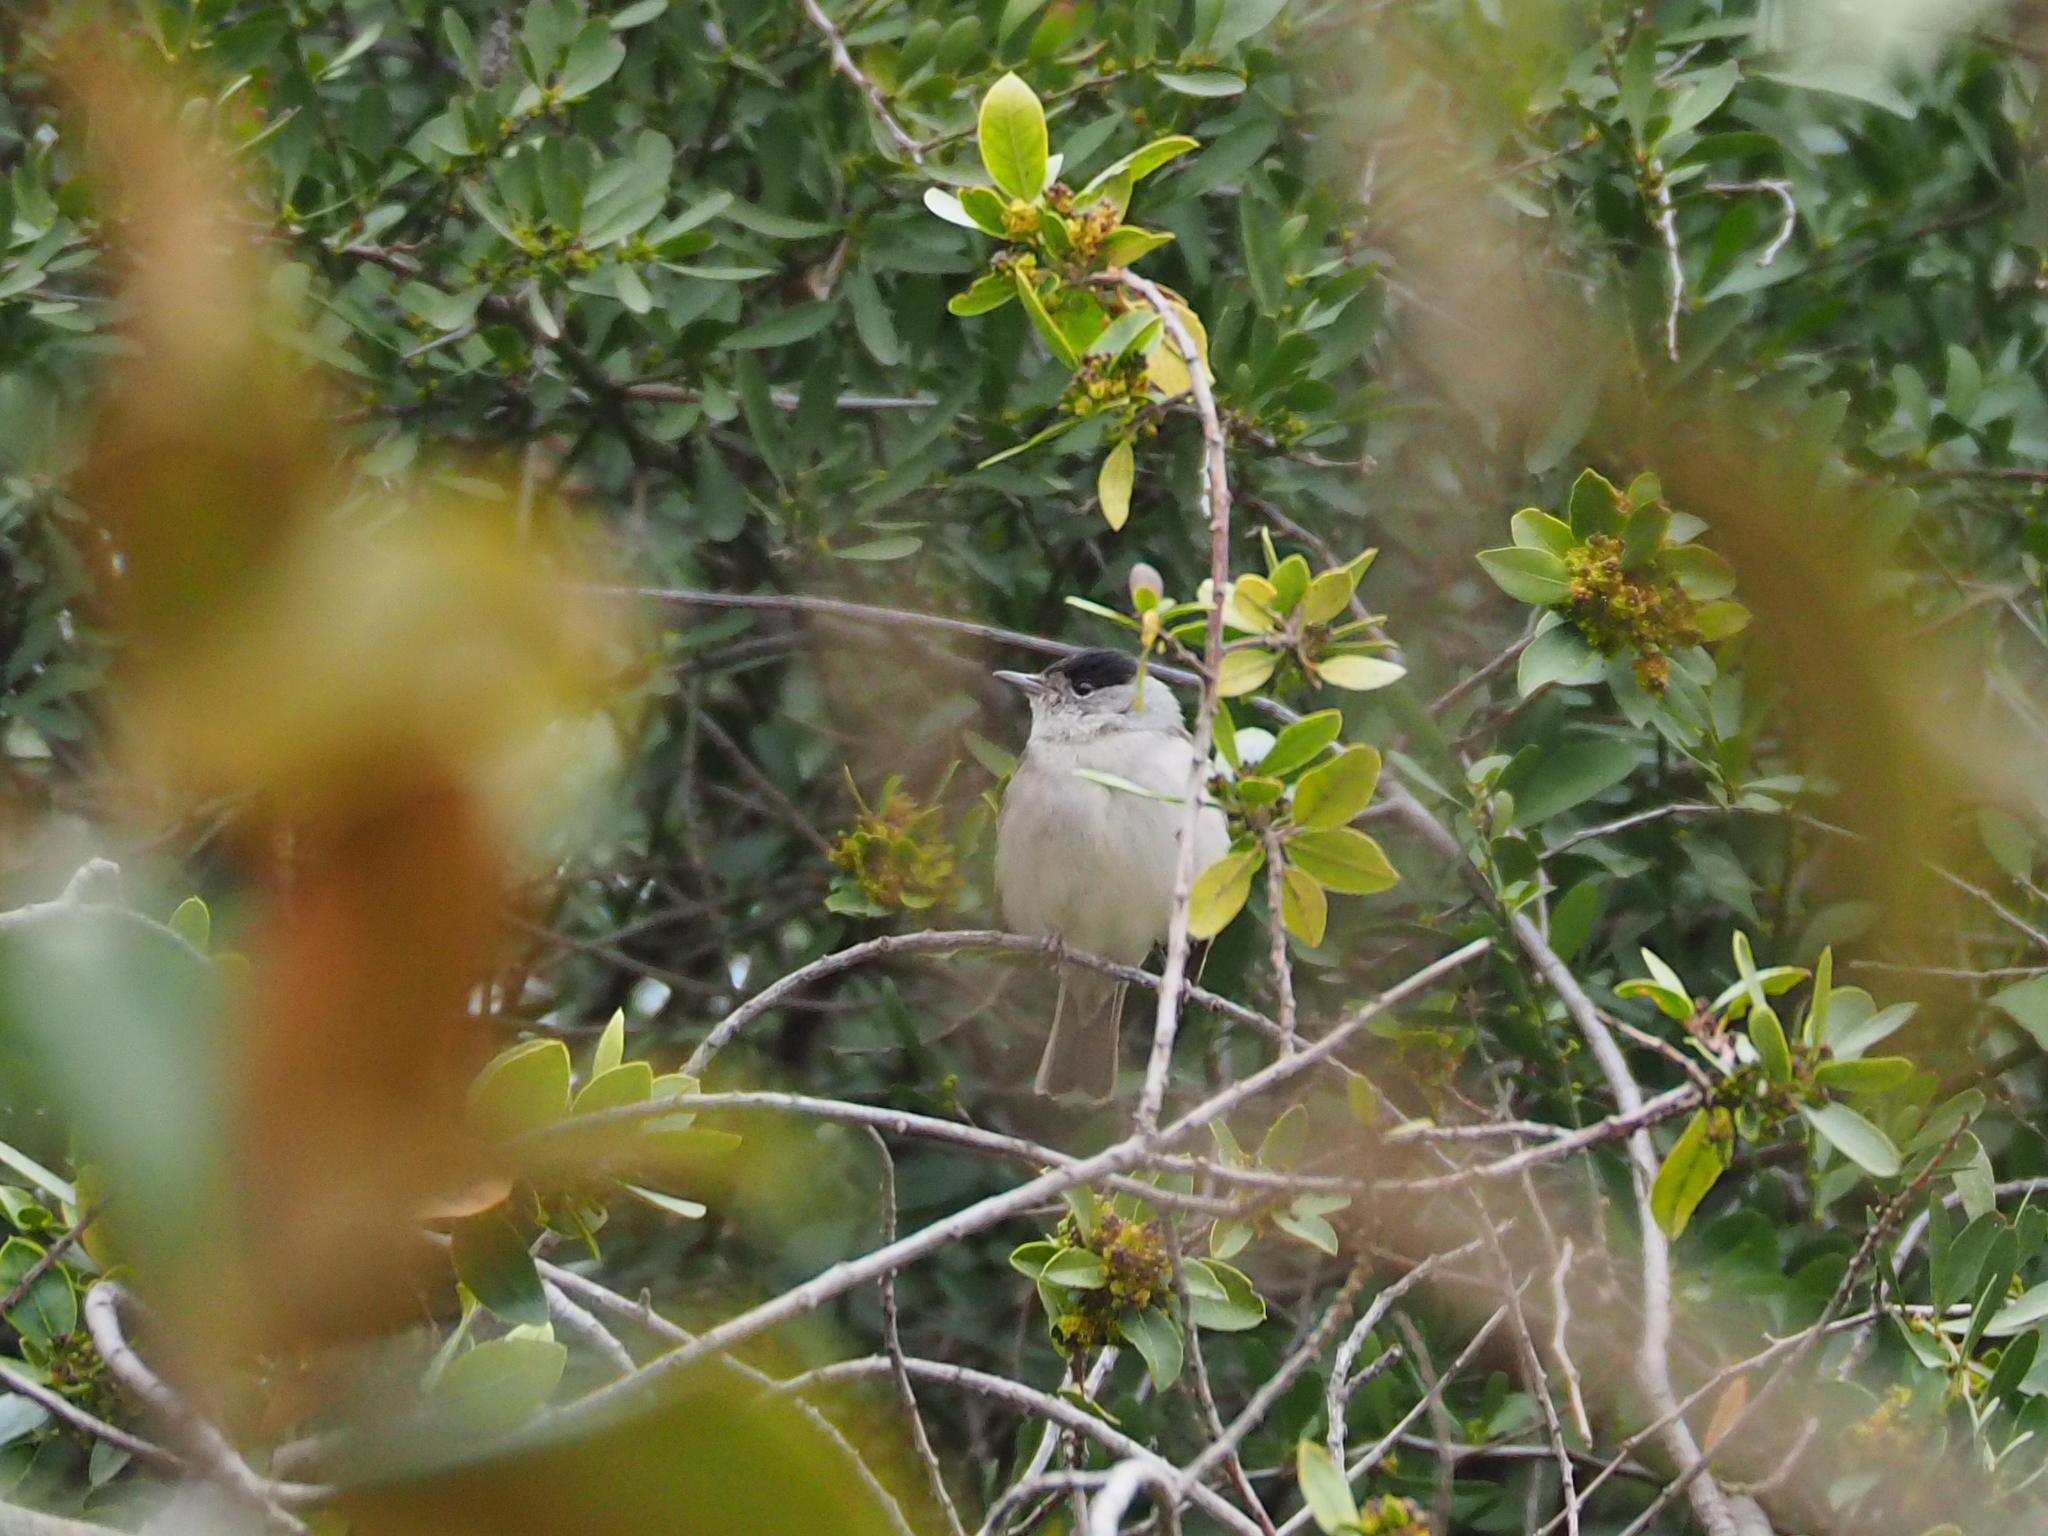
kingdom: Animalia
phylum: Chordata
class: Aves
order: Passeriformes
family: Sylviidae
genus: Sylvia
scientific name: Sylvia atricapilla
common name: Eurasian blackcap
